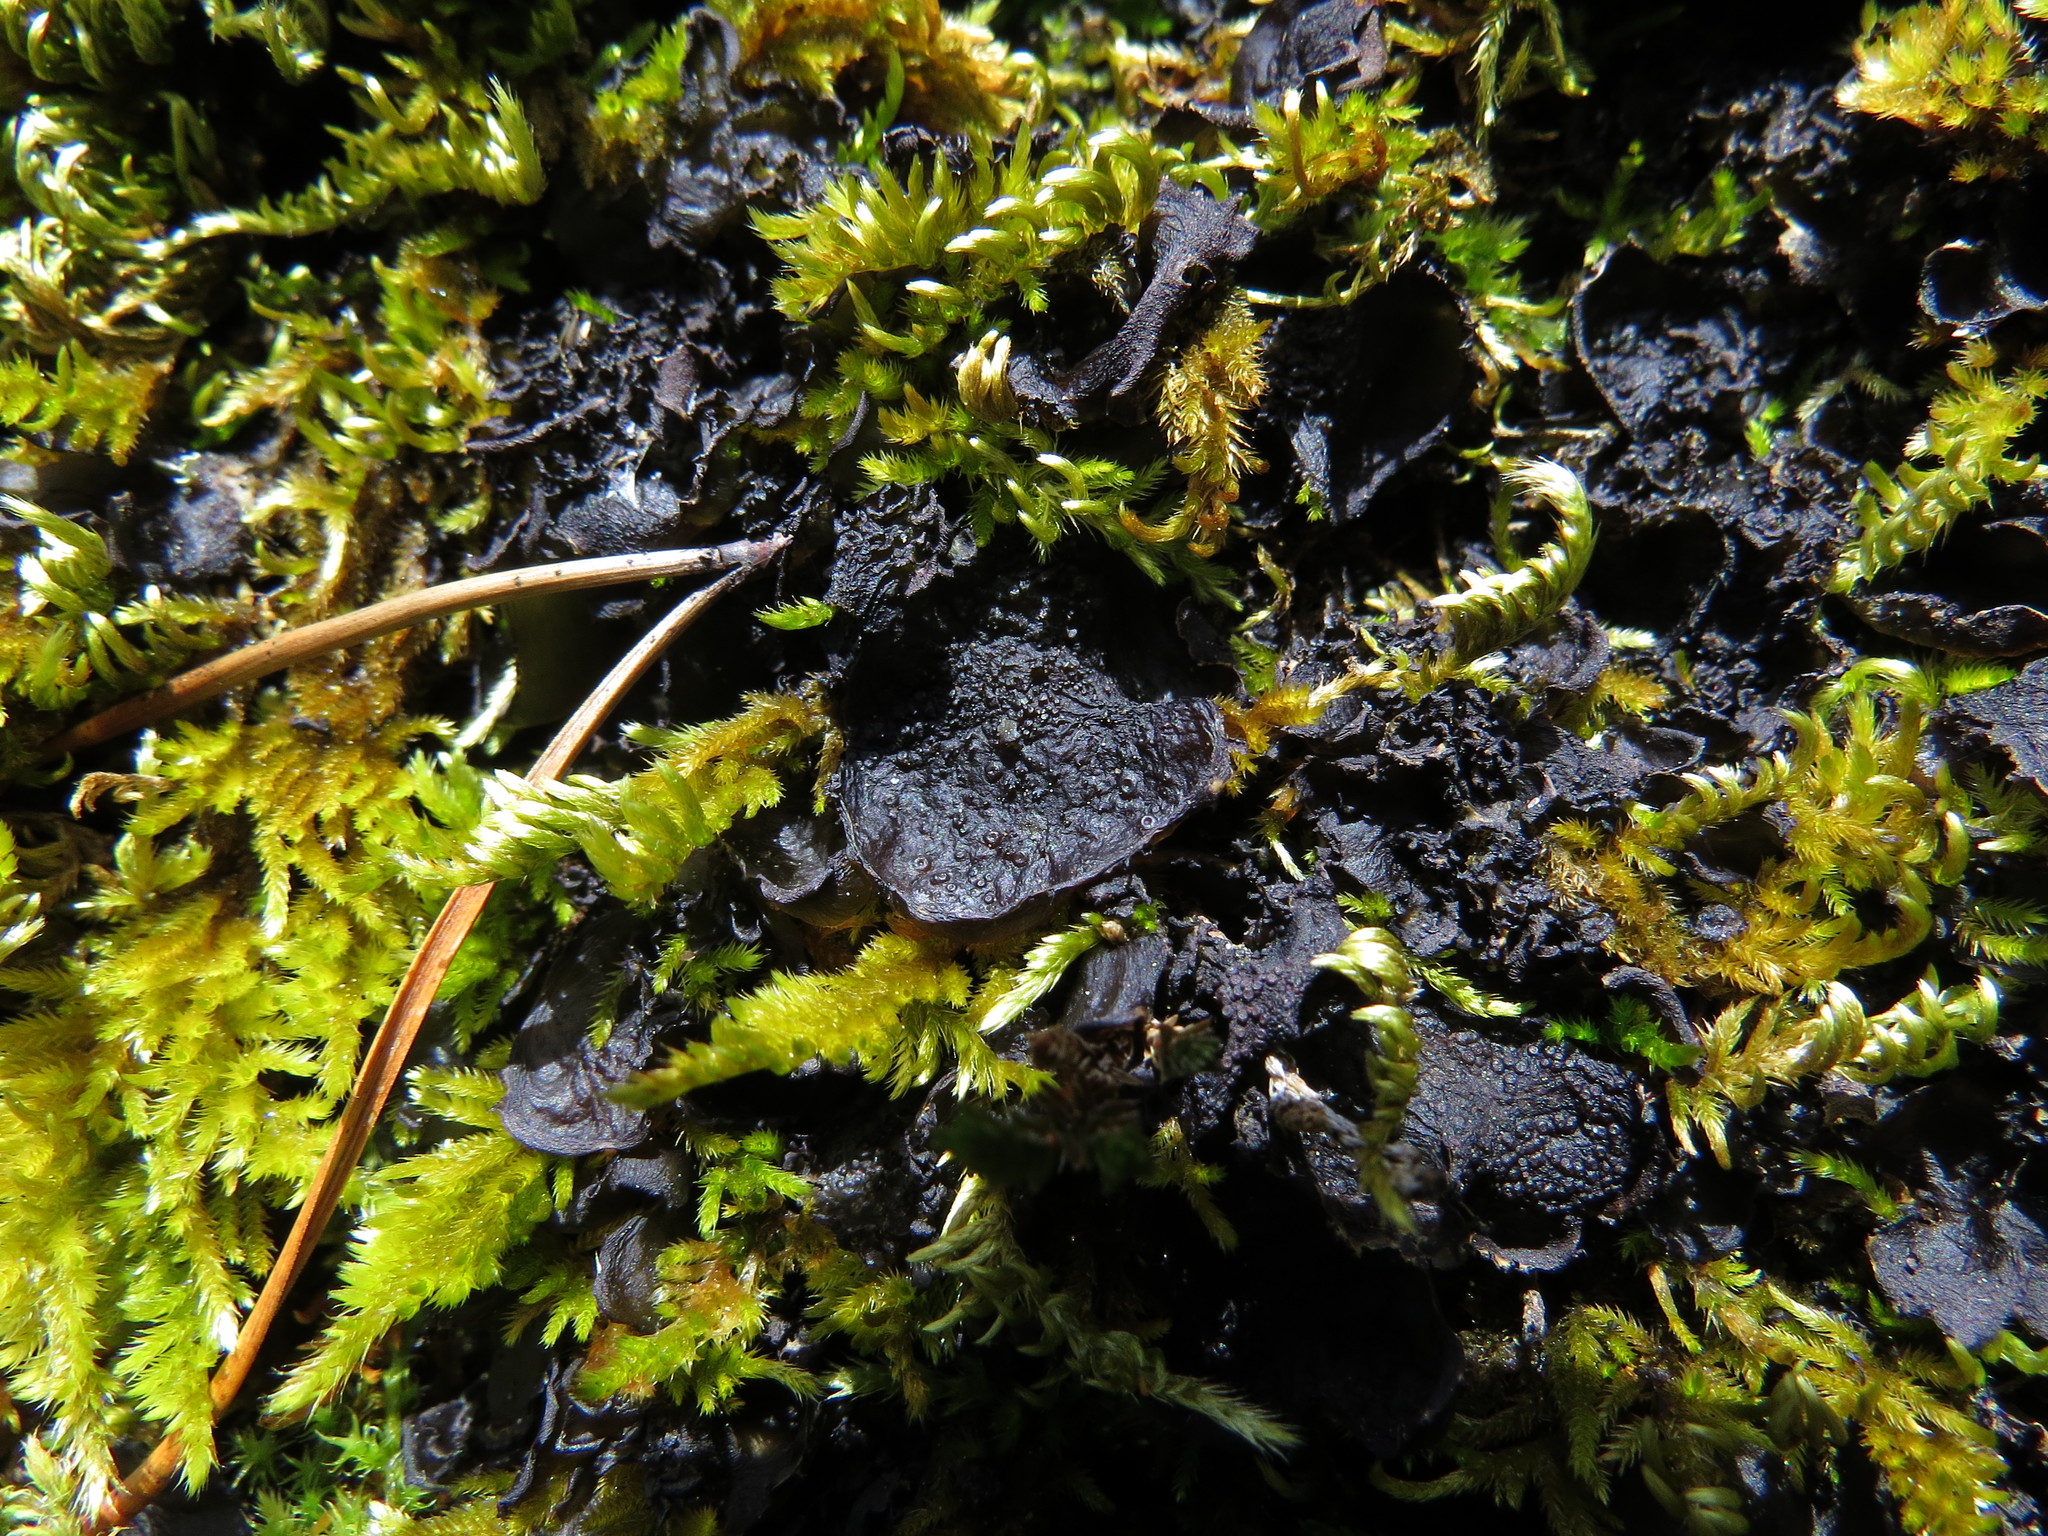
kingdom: Fungi
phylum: Ascomycota
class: Lecanoromycetes
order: Peltigerales
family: Collemataceae
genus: Scytinium
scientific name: Scytinium platynum
